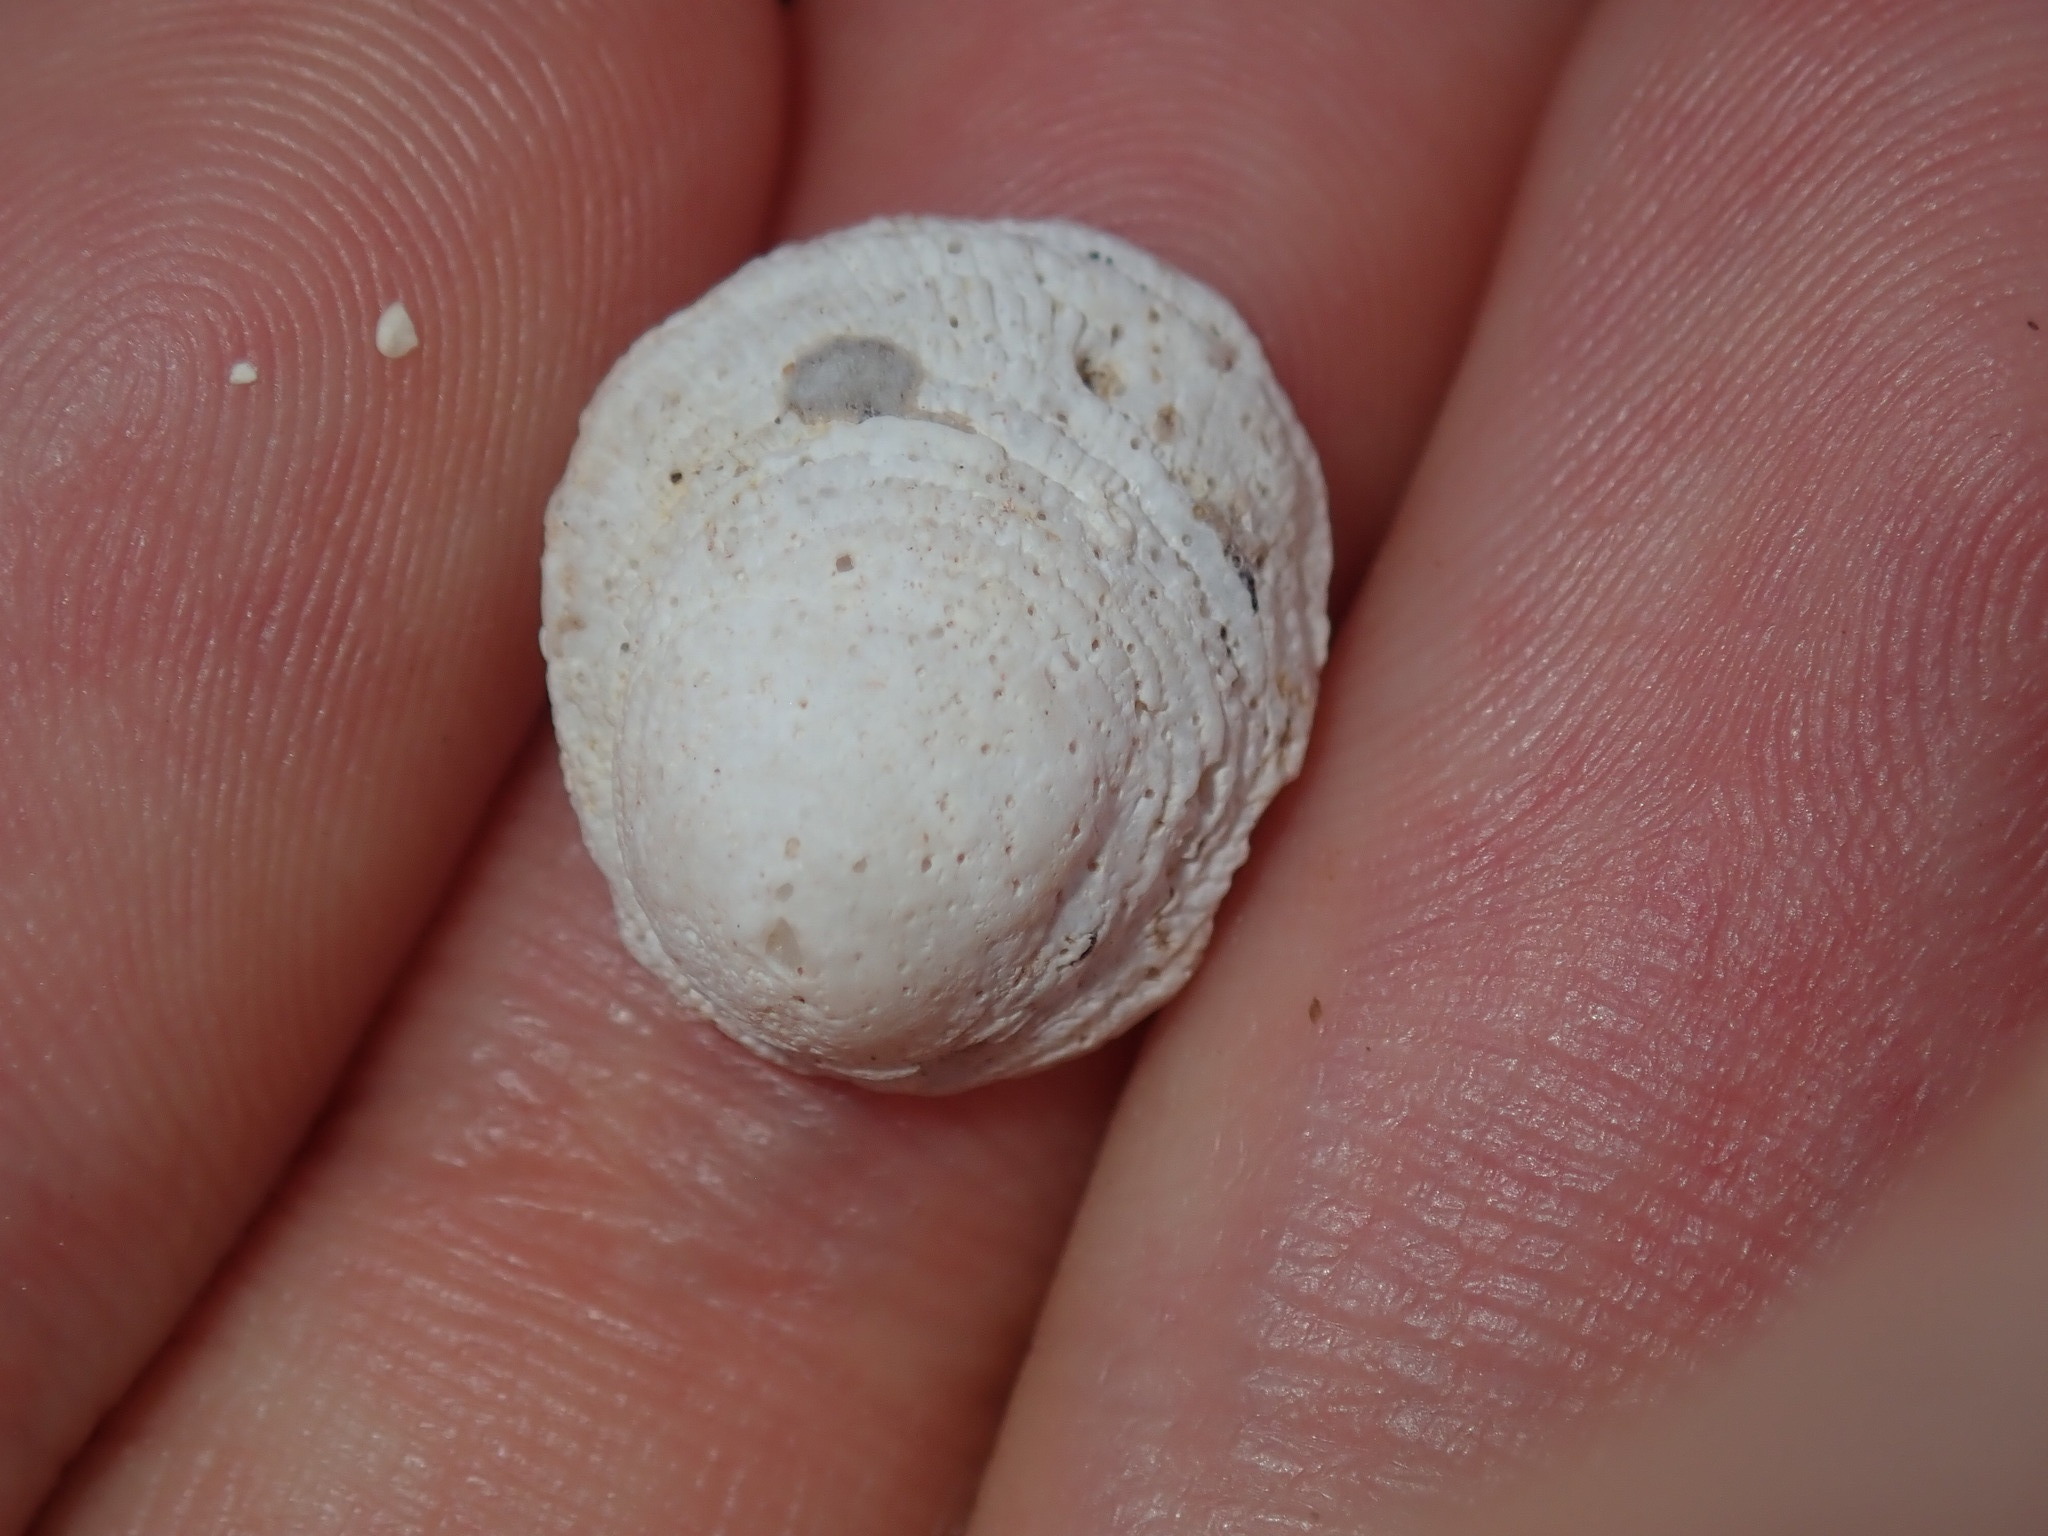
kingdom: Animalia
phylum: Mollusca
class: Gastropoda
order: Littorinimorpha
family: Hipponicidae
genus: Antisabia
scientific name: Antisabia foliacea
